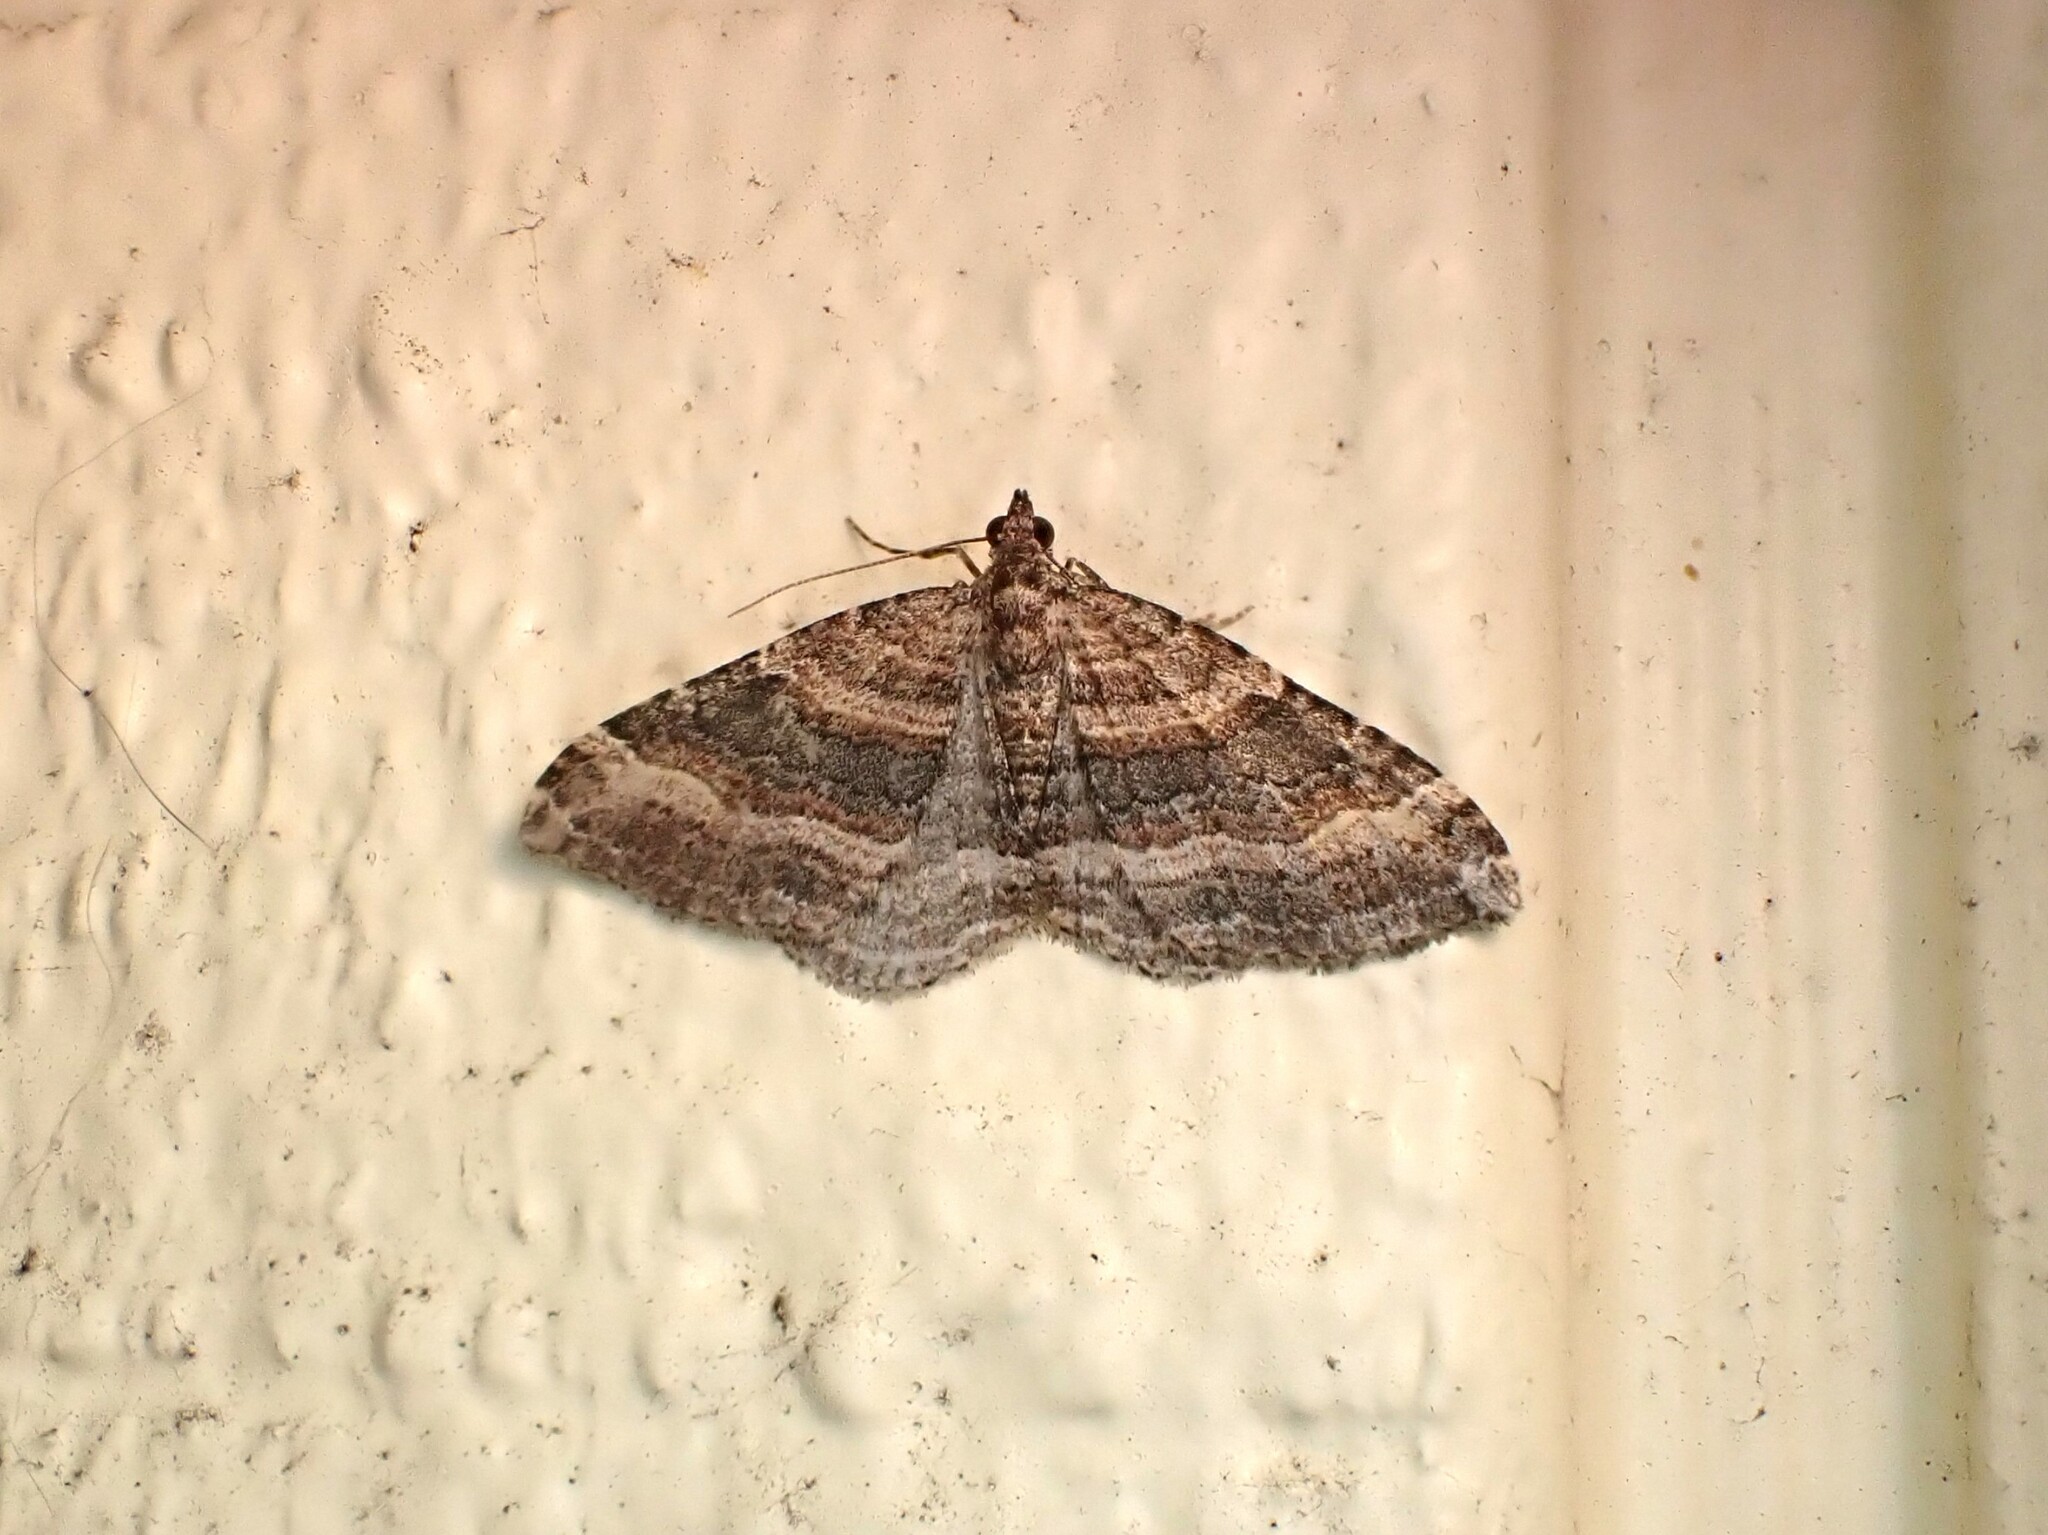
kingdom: Animalia
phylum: Arthropoda
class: Insecta
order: Lepidoptera
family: Geometridae
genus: Epyaxa
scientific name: Epyaxa lucidata
